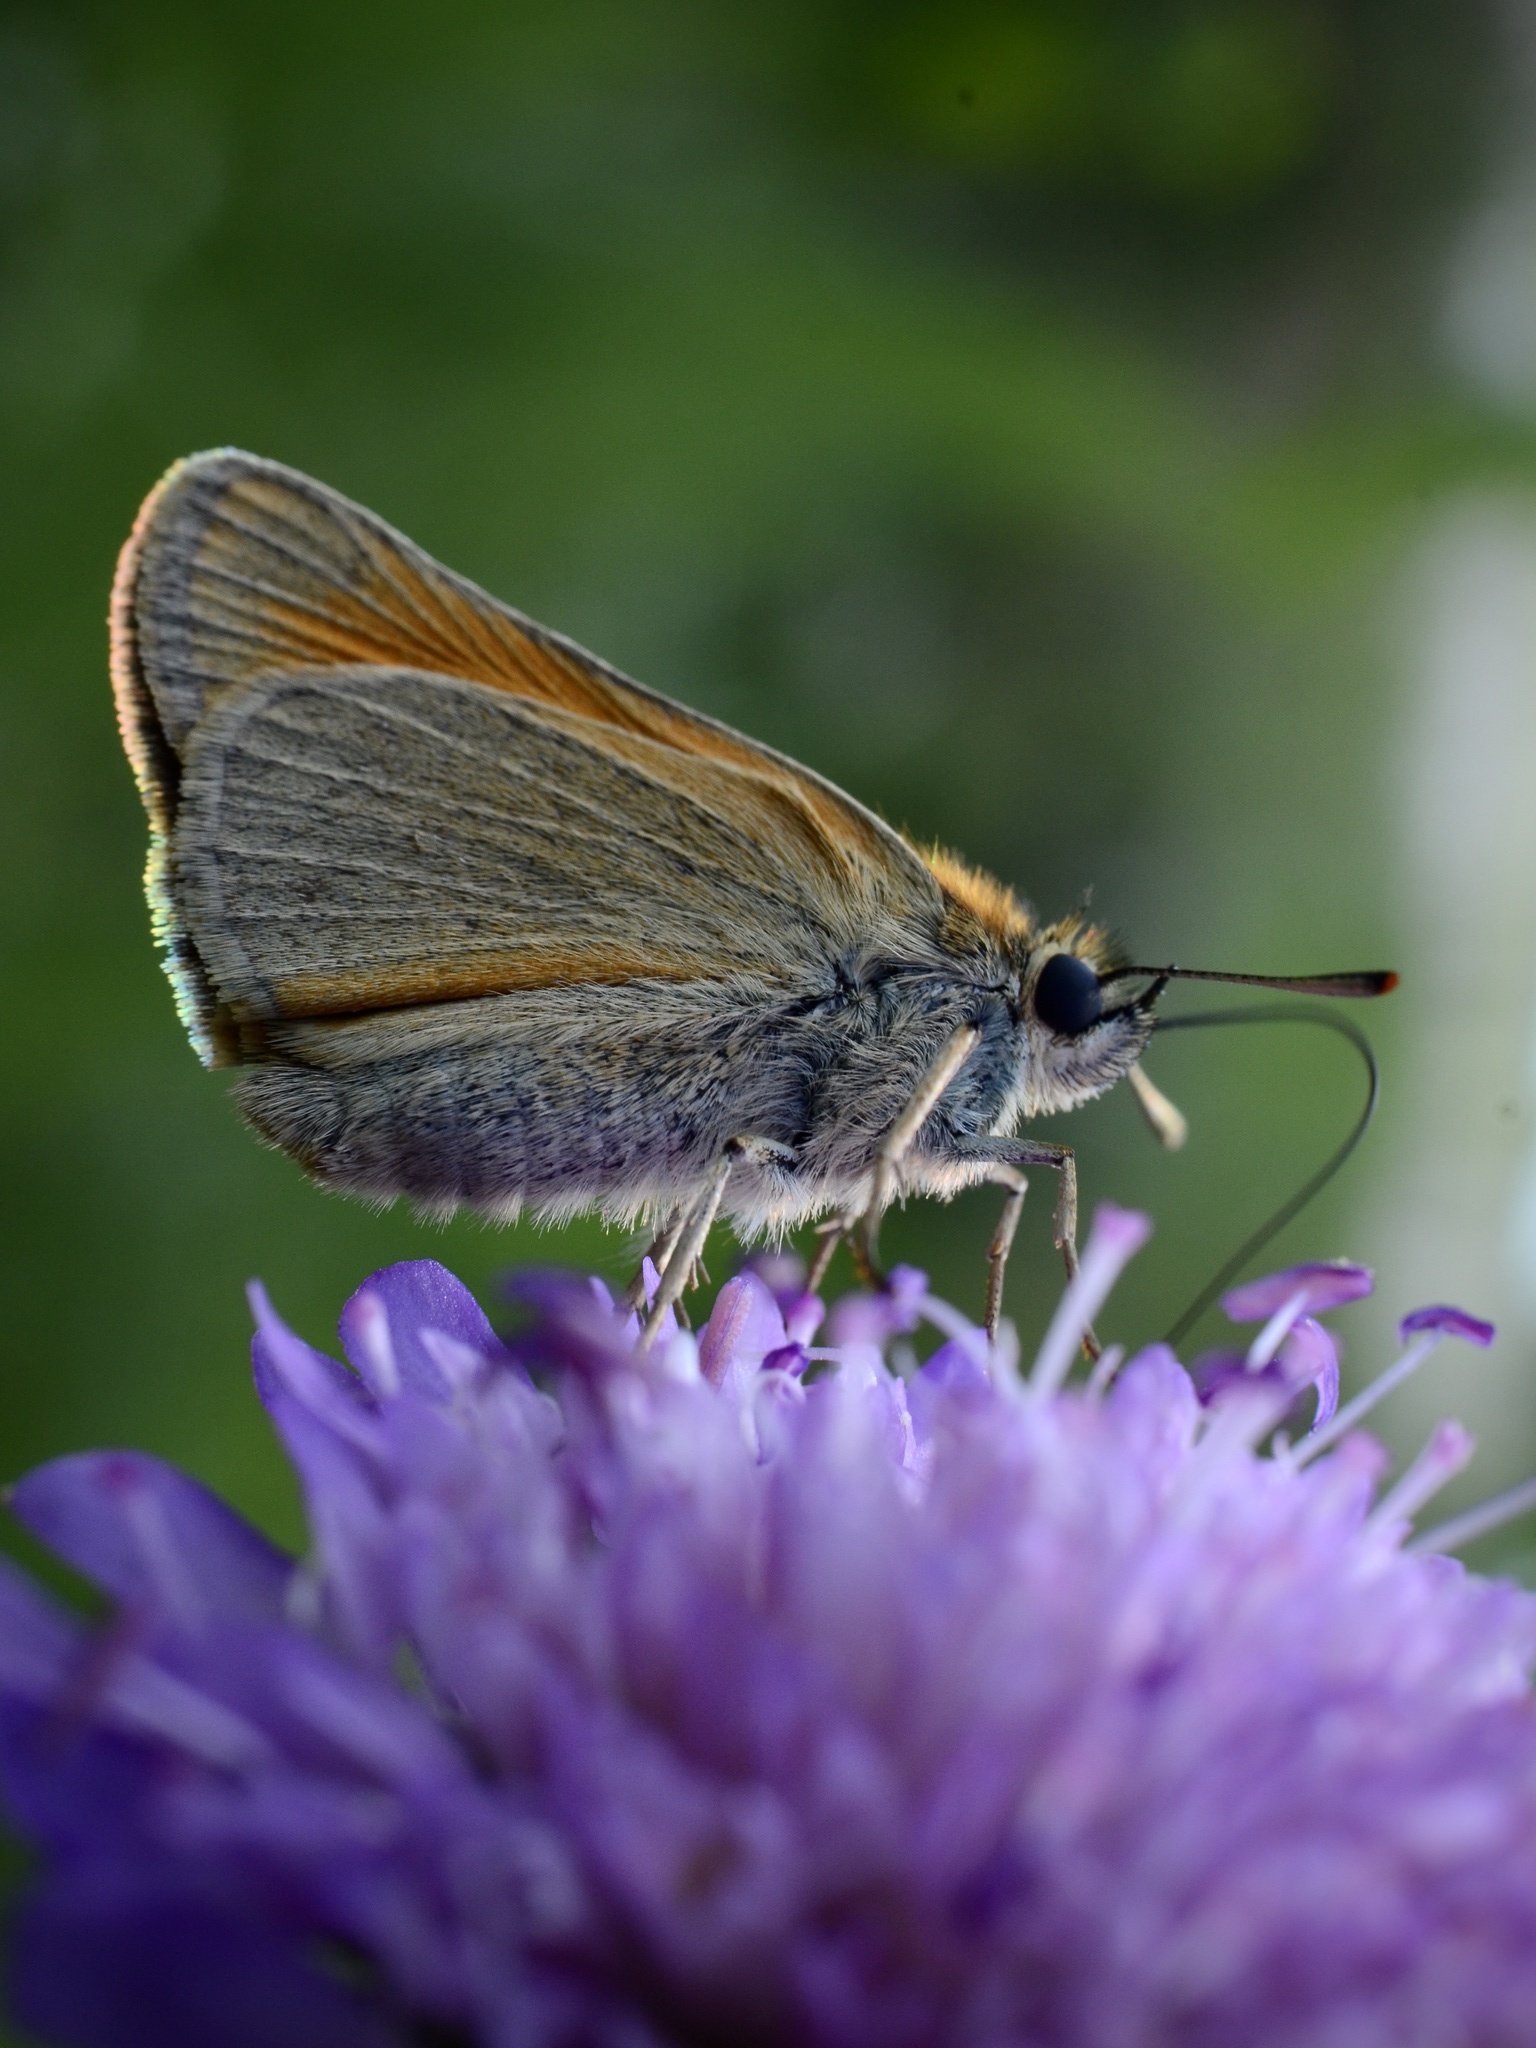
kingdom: Animalia
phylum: Arthropoda
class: Insecta
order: Lepidoptera
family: Hesperiidae
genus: Thymelicus
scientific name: Thymelicus sylvestris
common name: Small skipper
